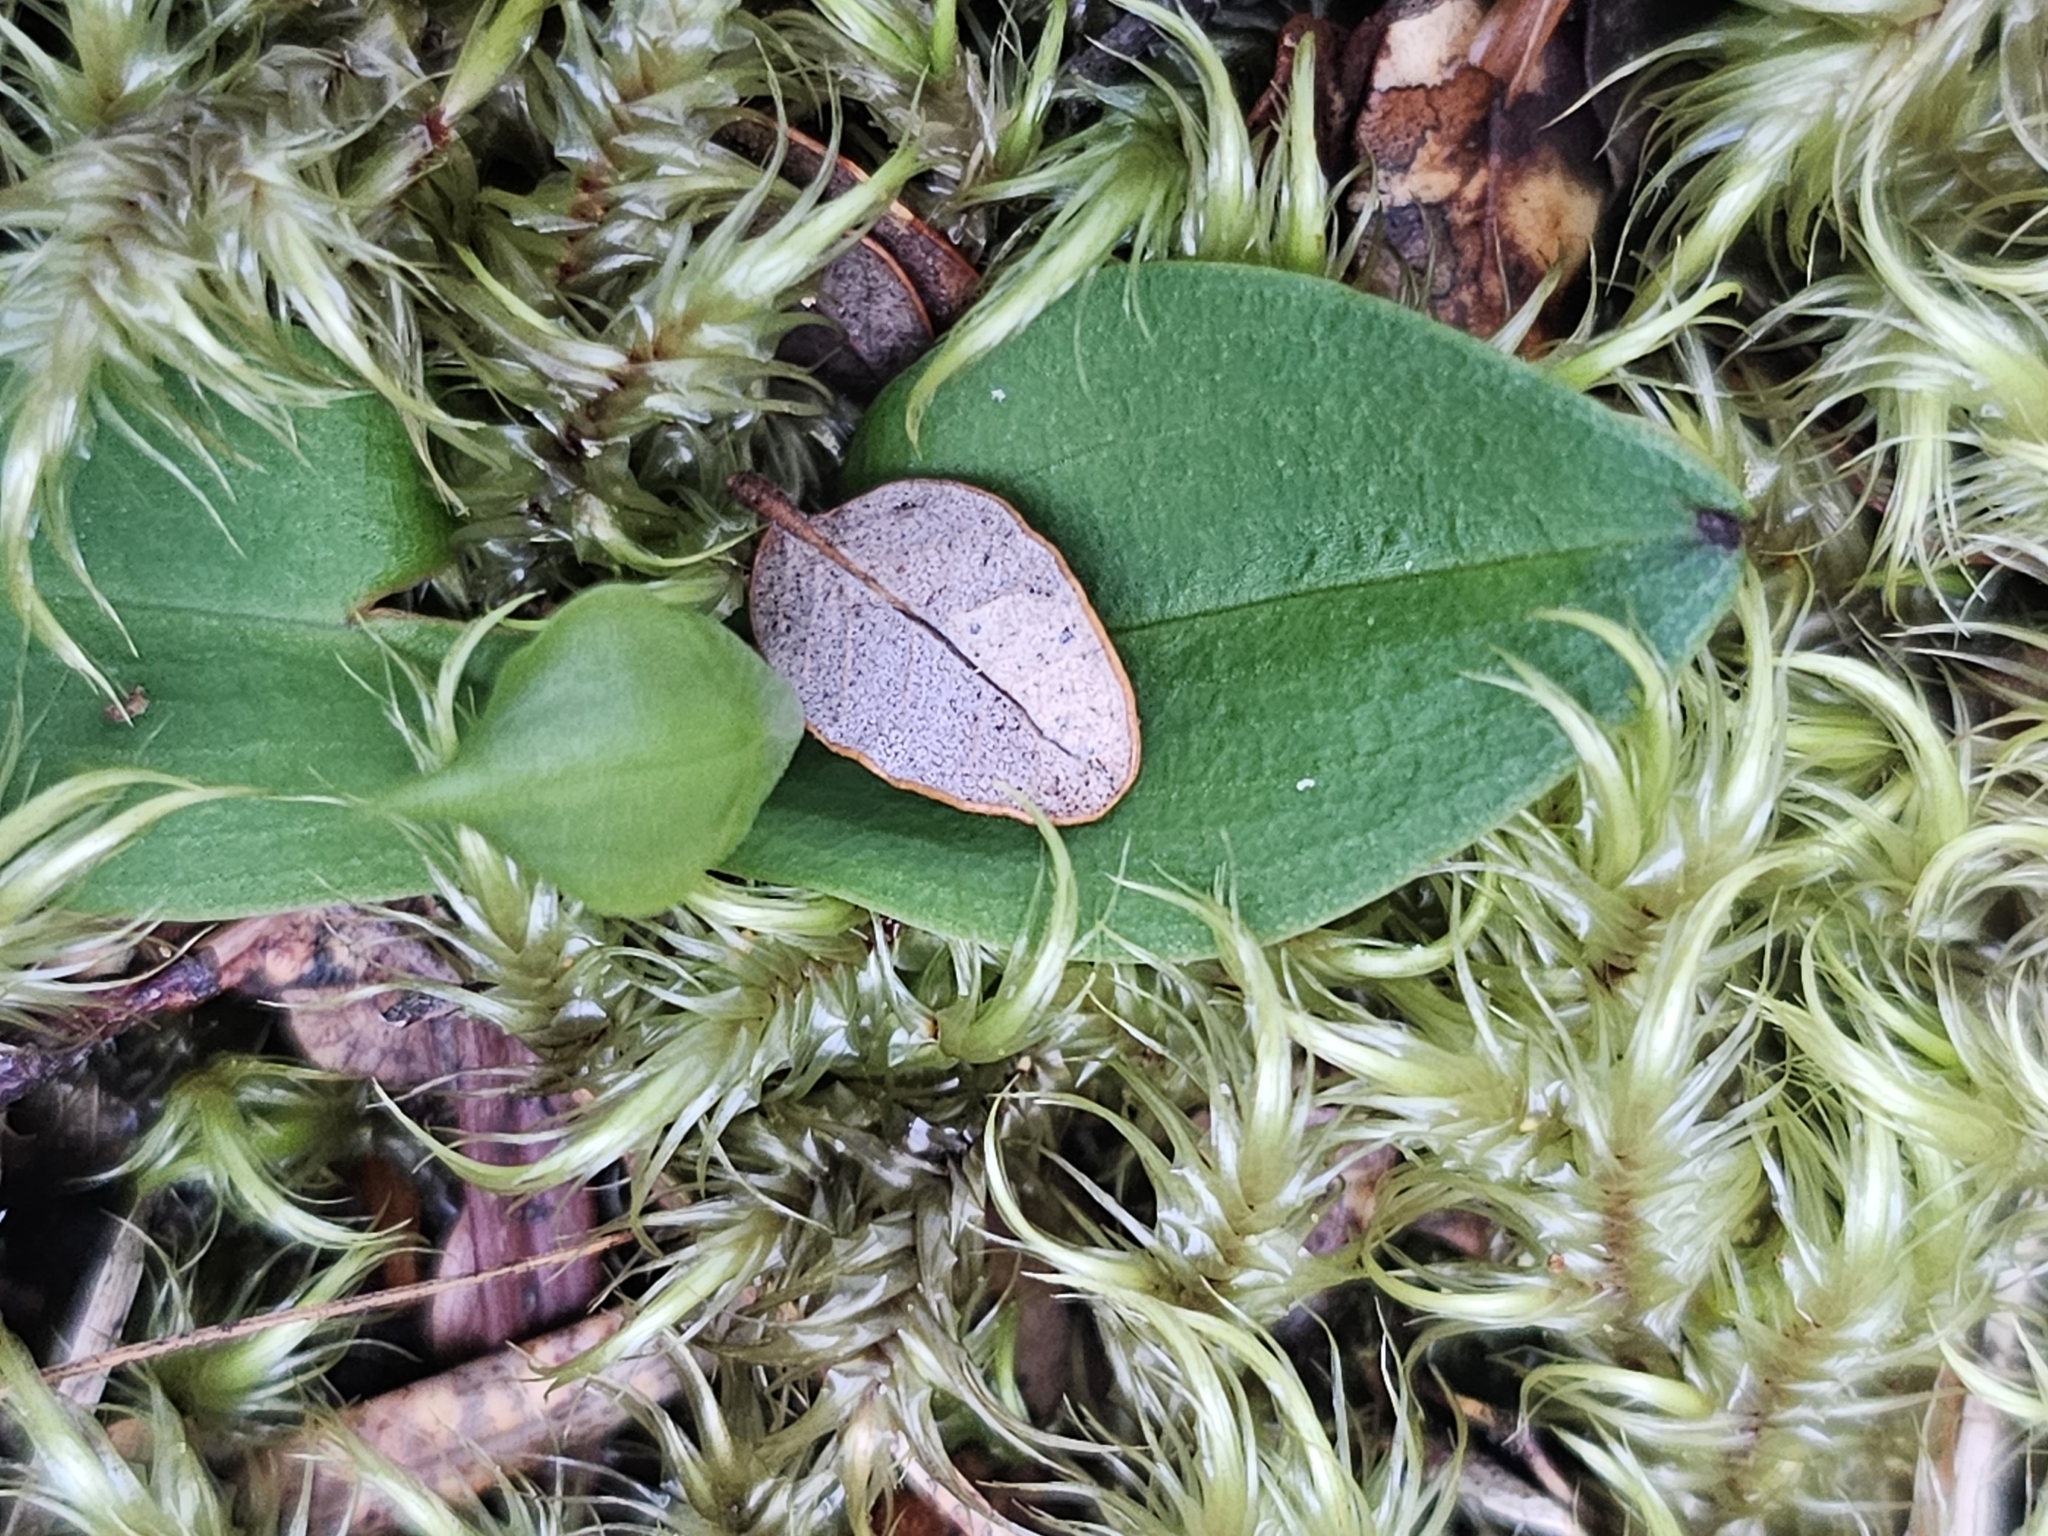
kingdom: Plantae
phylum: Tracheophyta
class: Liliopsida
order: Asparagales
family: Orchidaceae
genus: Chiloglottis
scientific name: Chiloglottis cornuta
